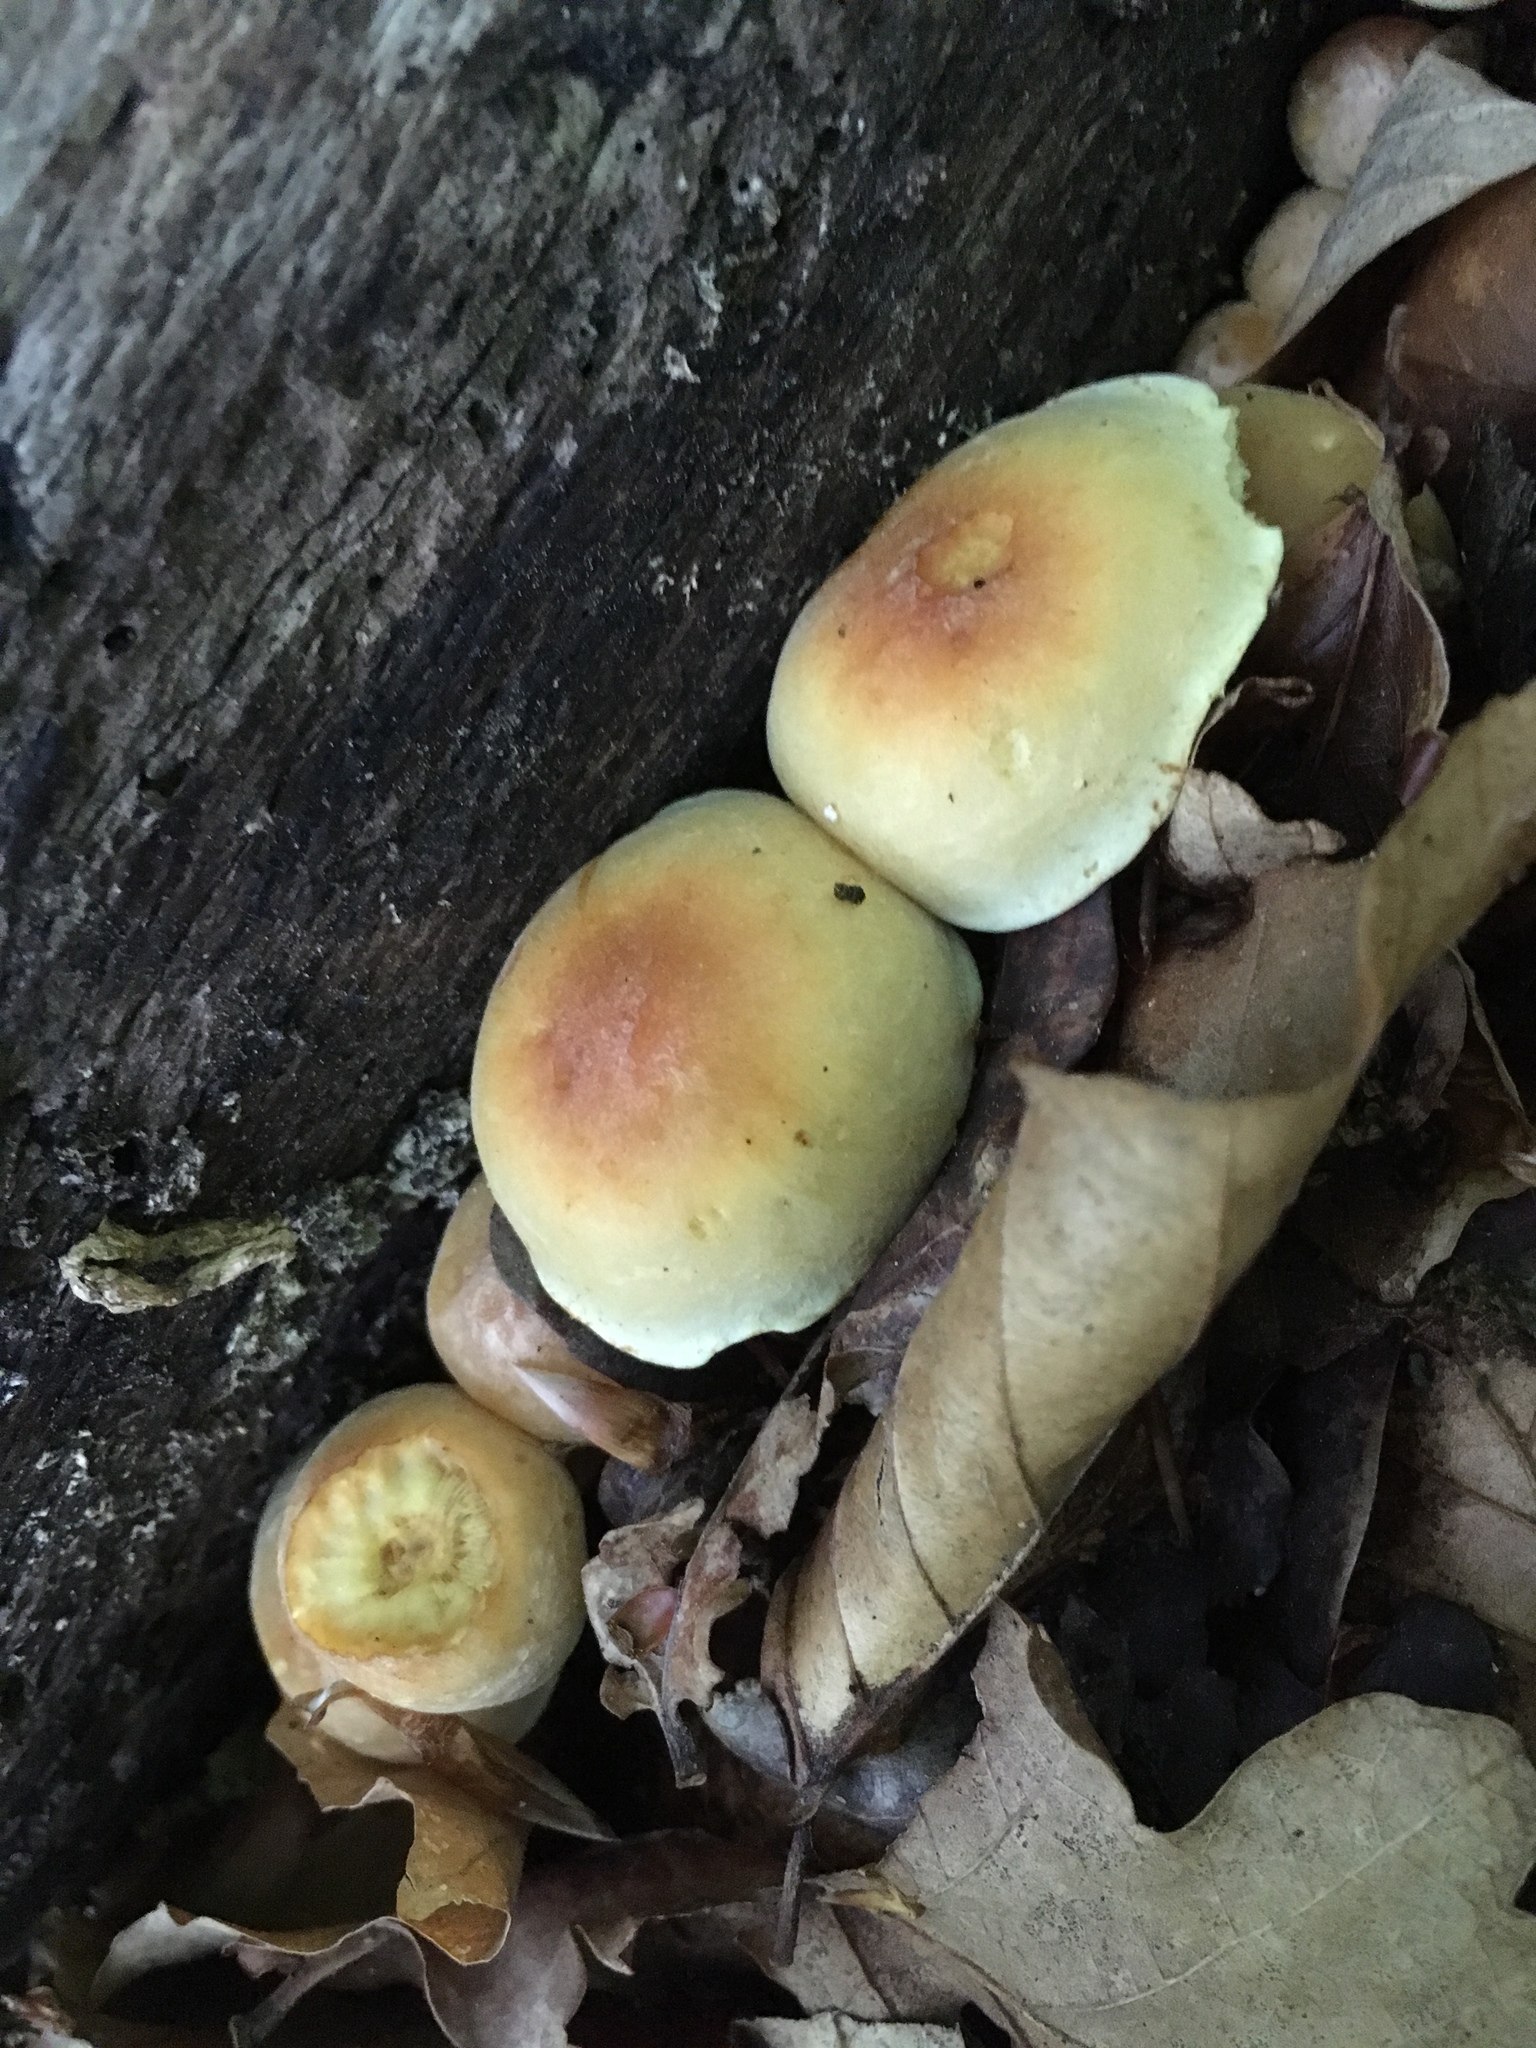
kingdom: Fungi
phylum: Basidiomycota
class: Agaricomycetes
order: Agaricales
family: Strophariaceae
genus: Hypholoma
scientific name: Hypholoma fasciculare
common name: Sulphur tuft
